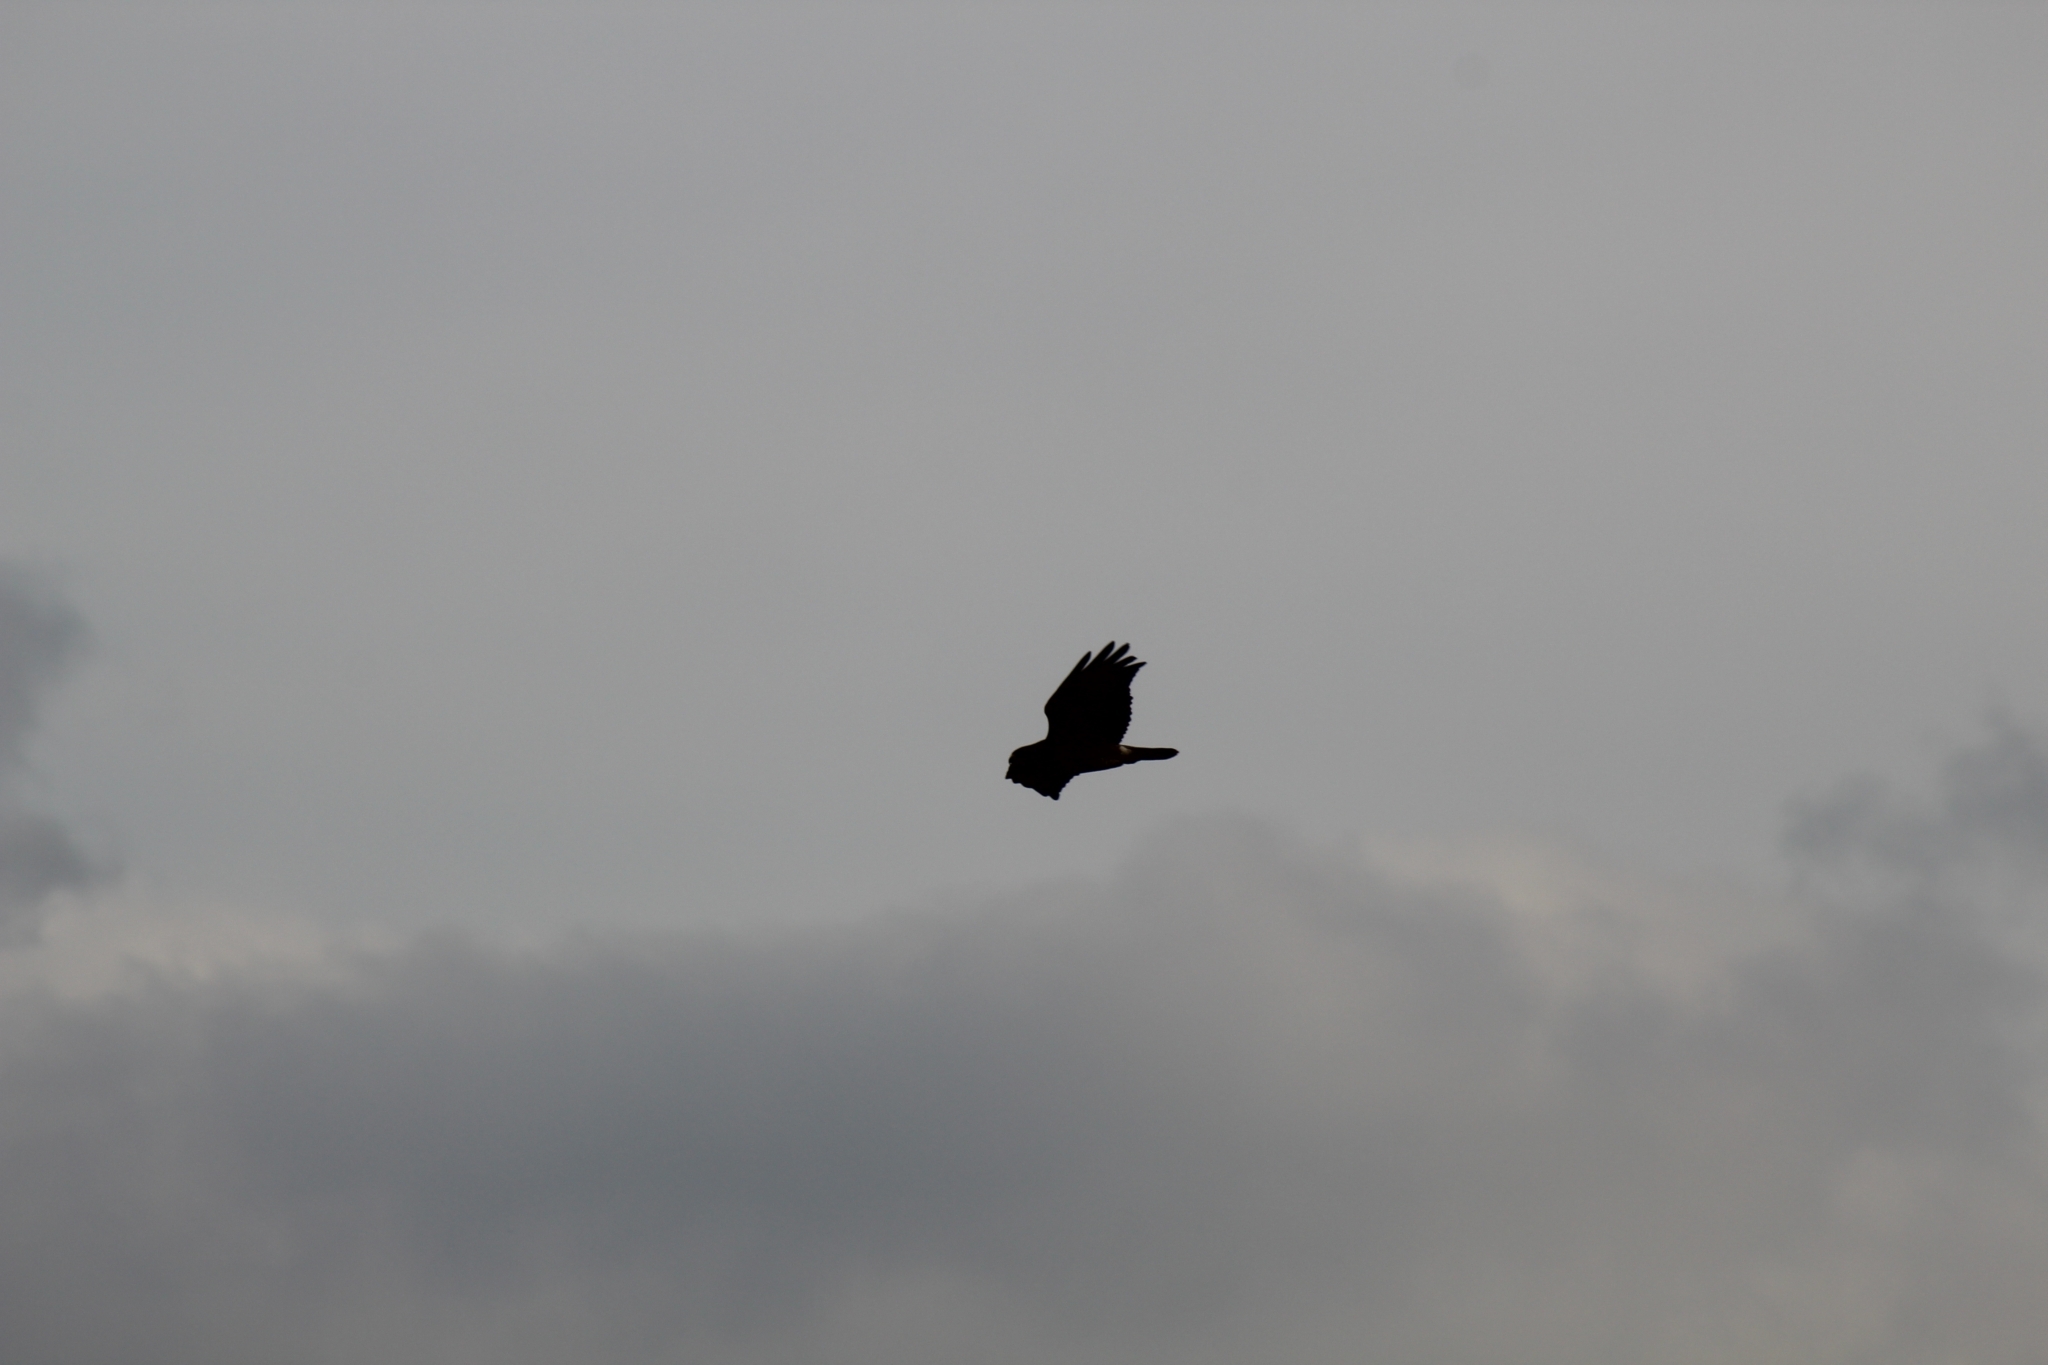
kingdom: Animalia
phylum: Chordata
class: Aves
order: Accipitriformes
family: Accipitridae
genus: Buteo
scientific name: Buteo buteo
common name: Common buzzard
